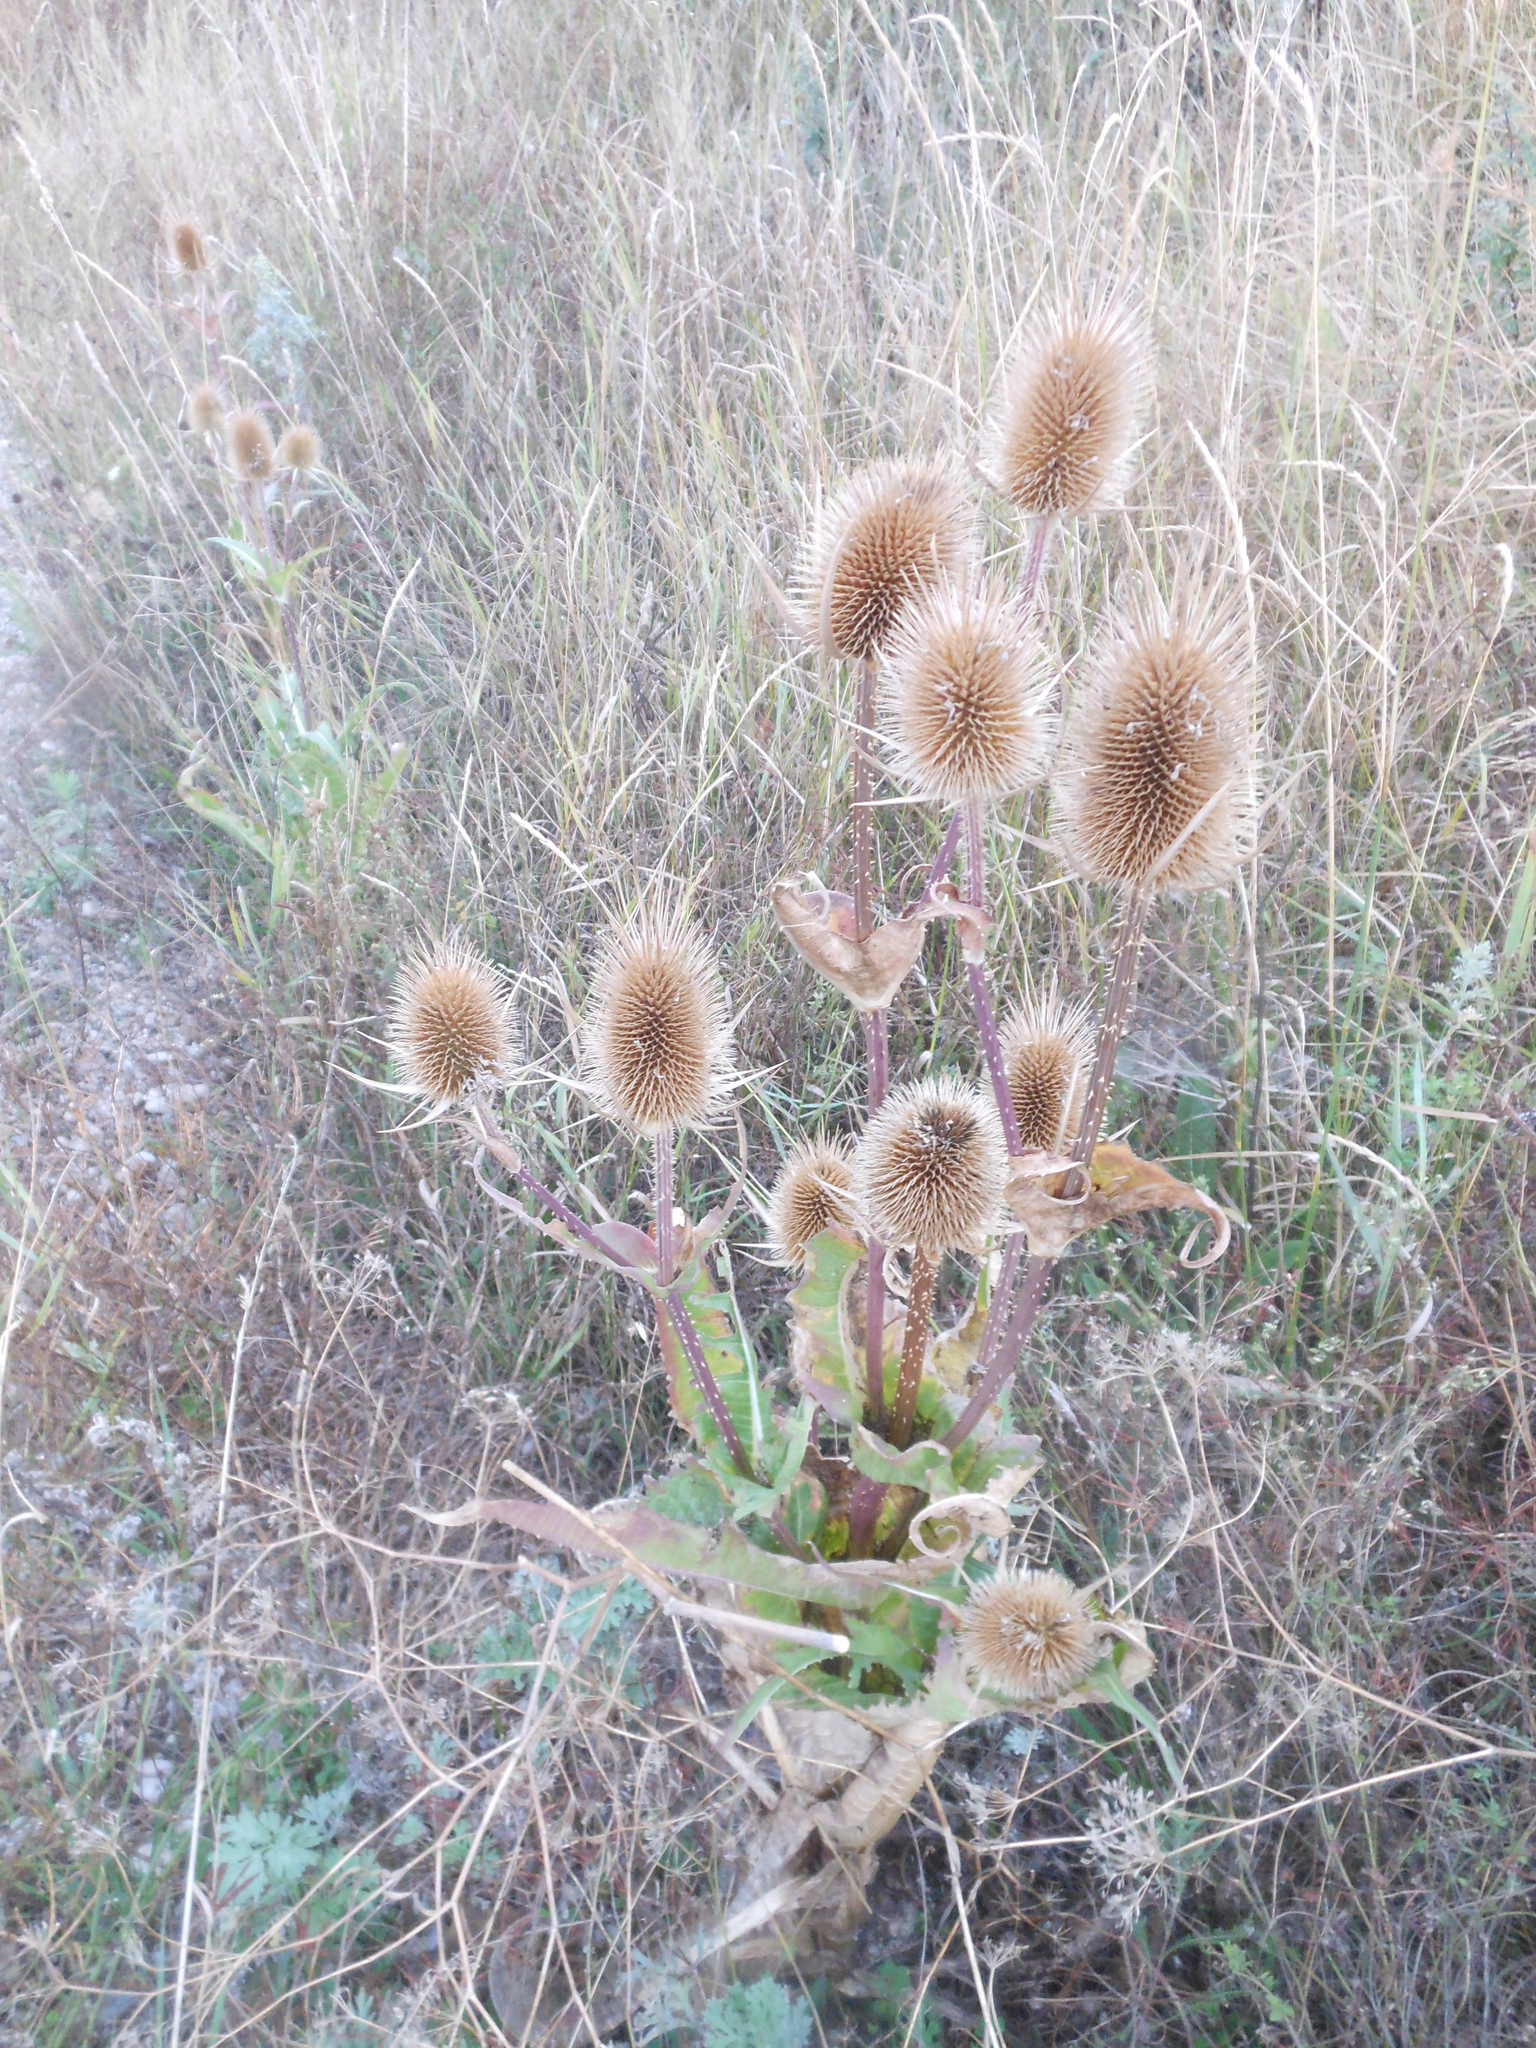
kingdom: Plantae
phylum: Tracheophyta
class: Magnoliopsida
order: Dipsacales
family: Caprifoliaceae
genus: Dipsacus
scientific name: Dipsacus laciniatus
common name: Cut-leaved teasel
